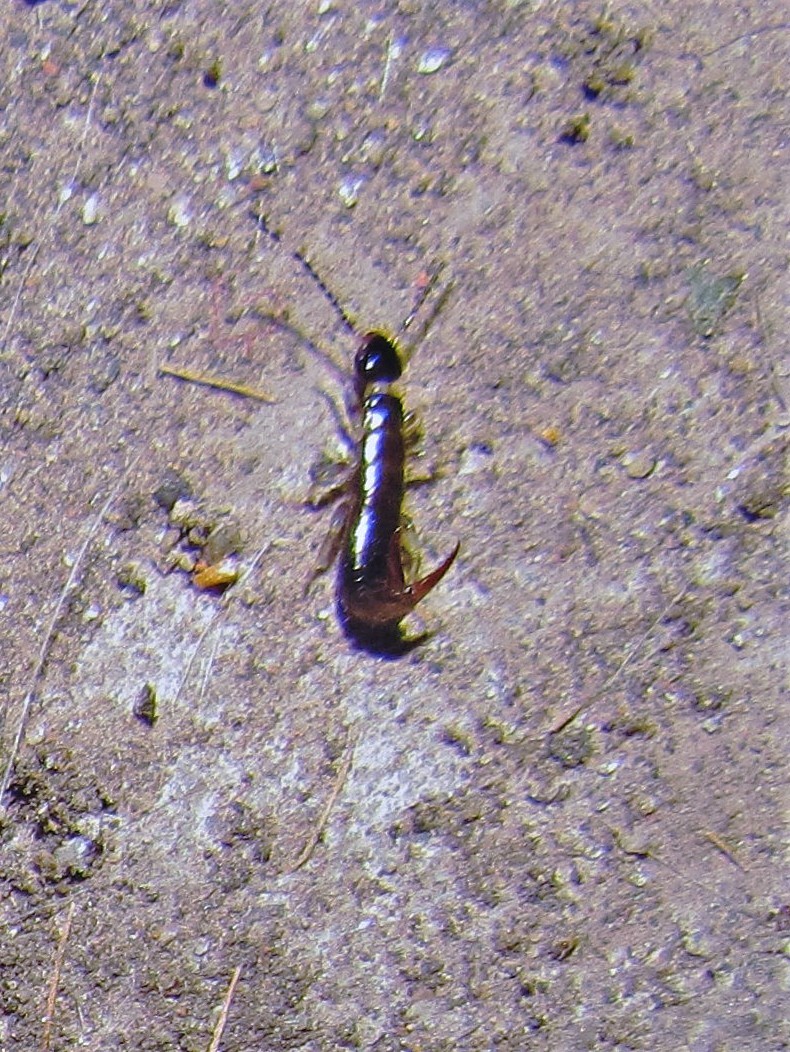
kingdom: Animalia
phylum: Arthropoda
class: Insecta
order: Dermaptera
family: Anisolabididae
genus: Euborellia
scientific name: Euborellia annulipes
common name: Ringlegged earwig
